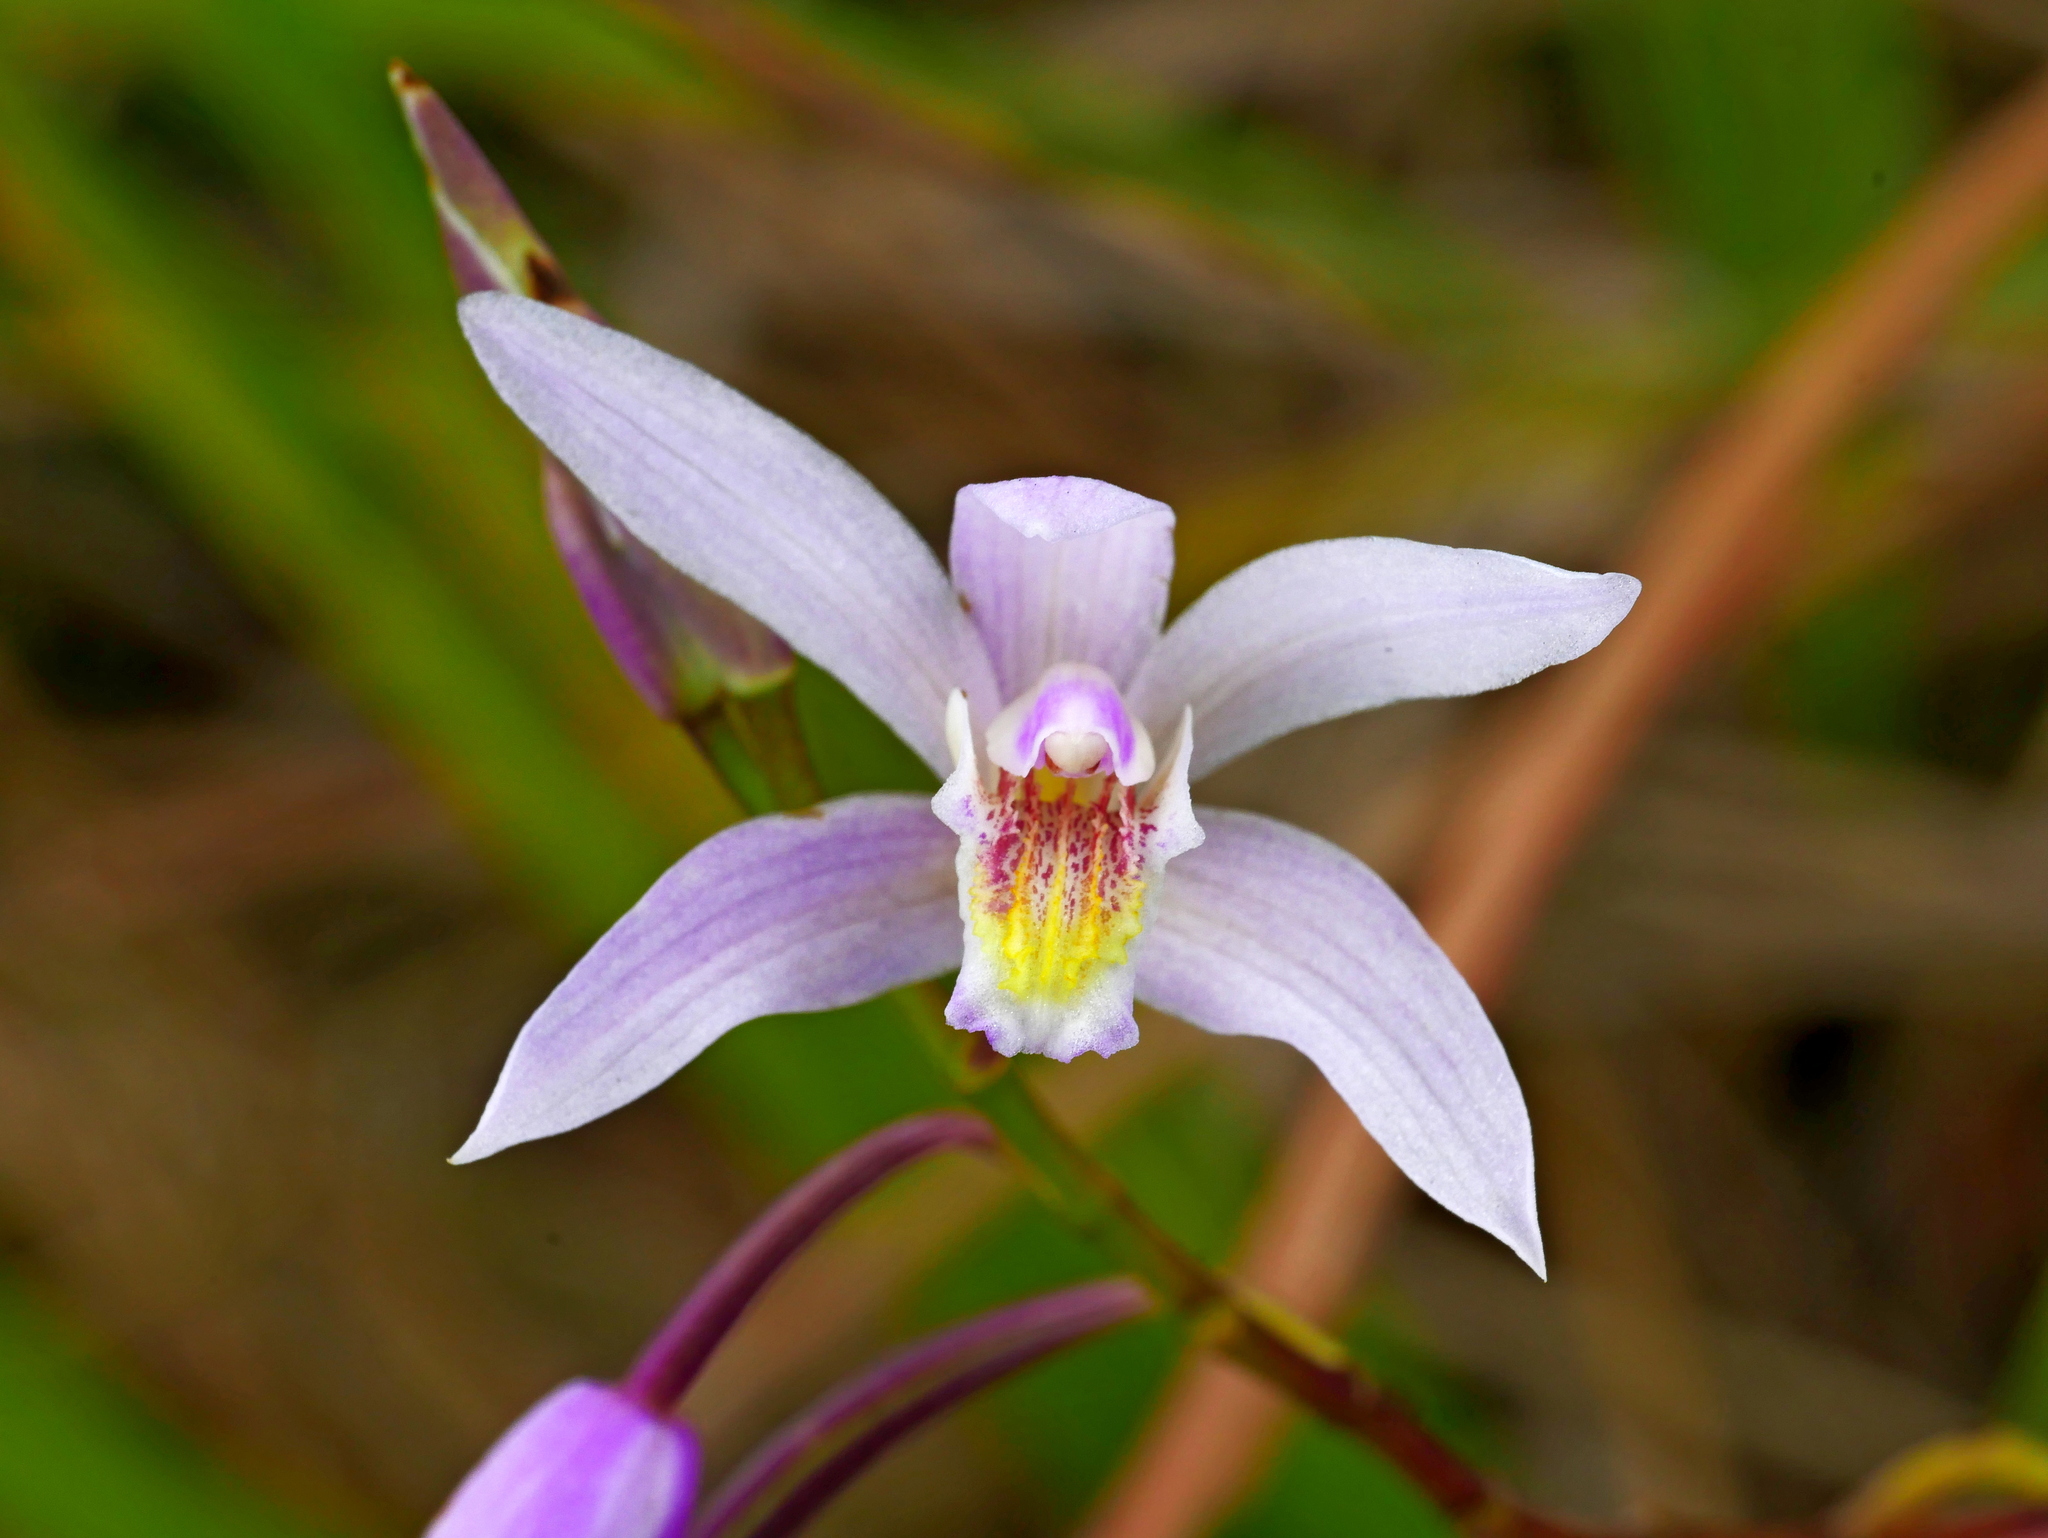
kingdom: Plantae
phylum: Tracheophyta
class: Liliopsida
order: Asparagales
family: Orchidaceae
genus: Bletilla
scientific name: Bletilla formosana
